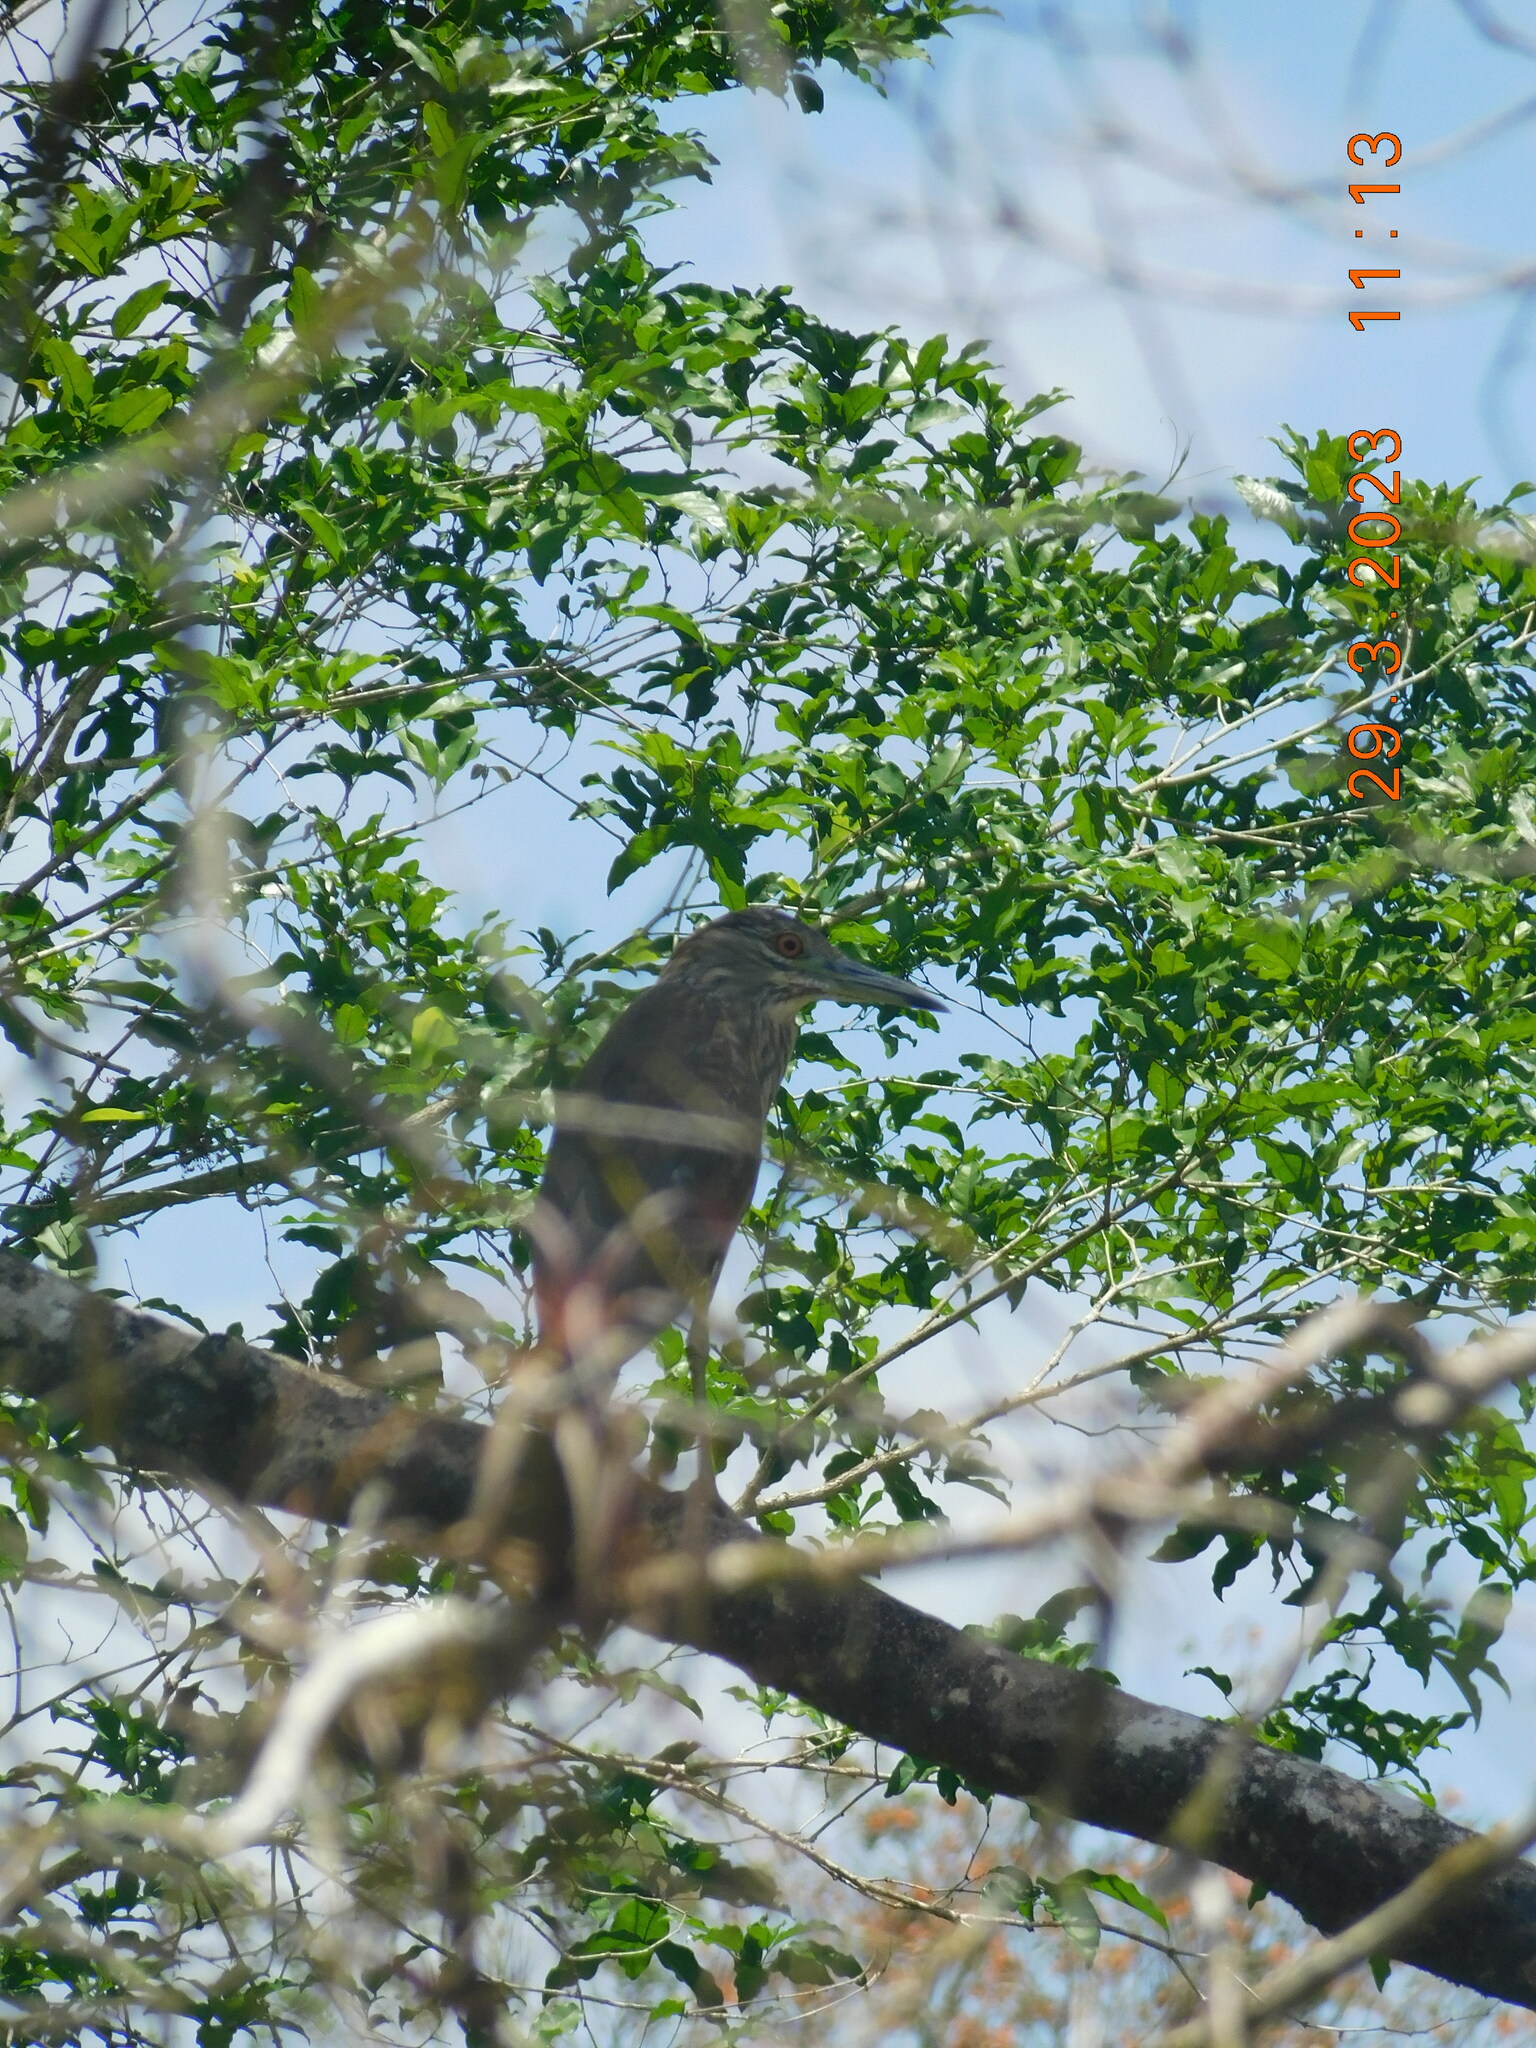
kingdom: Animalia
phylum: Chordata
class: Aves
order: Pelecaniformes
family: Ardeidae
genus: Nycticorax
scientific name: Nycticorax nycticorax
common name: Black-crowned night heron
